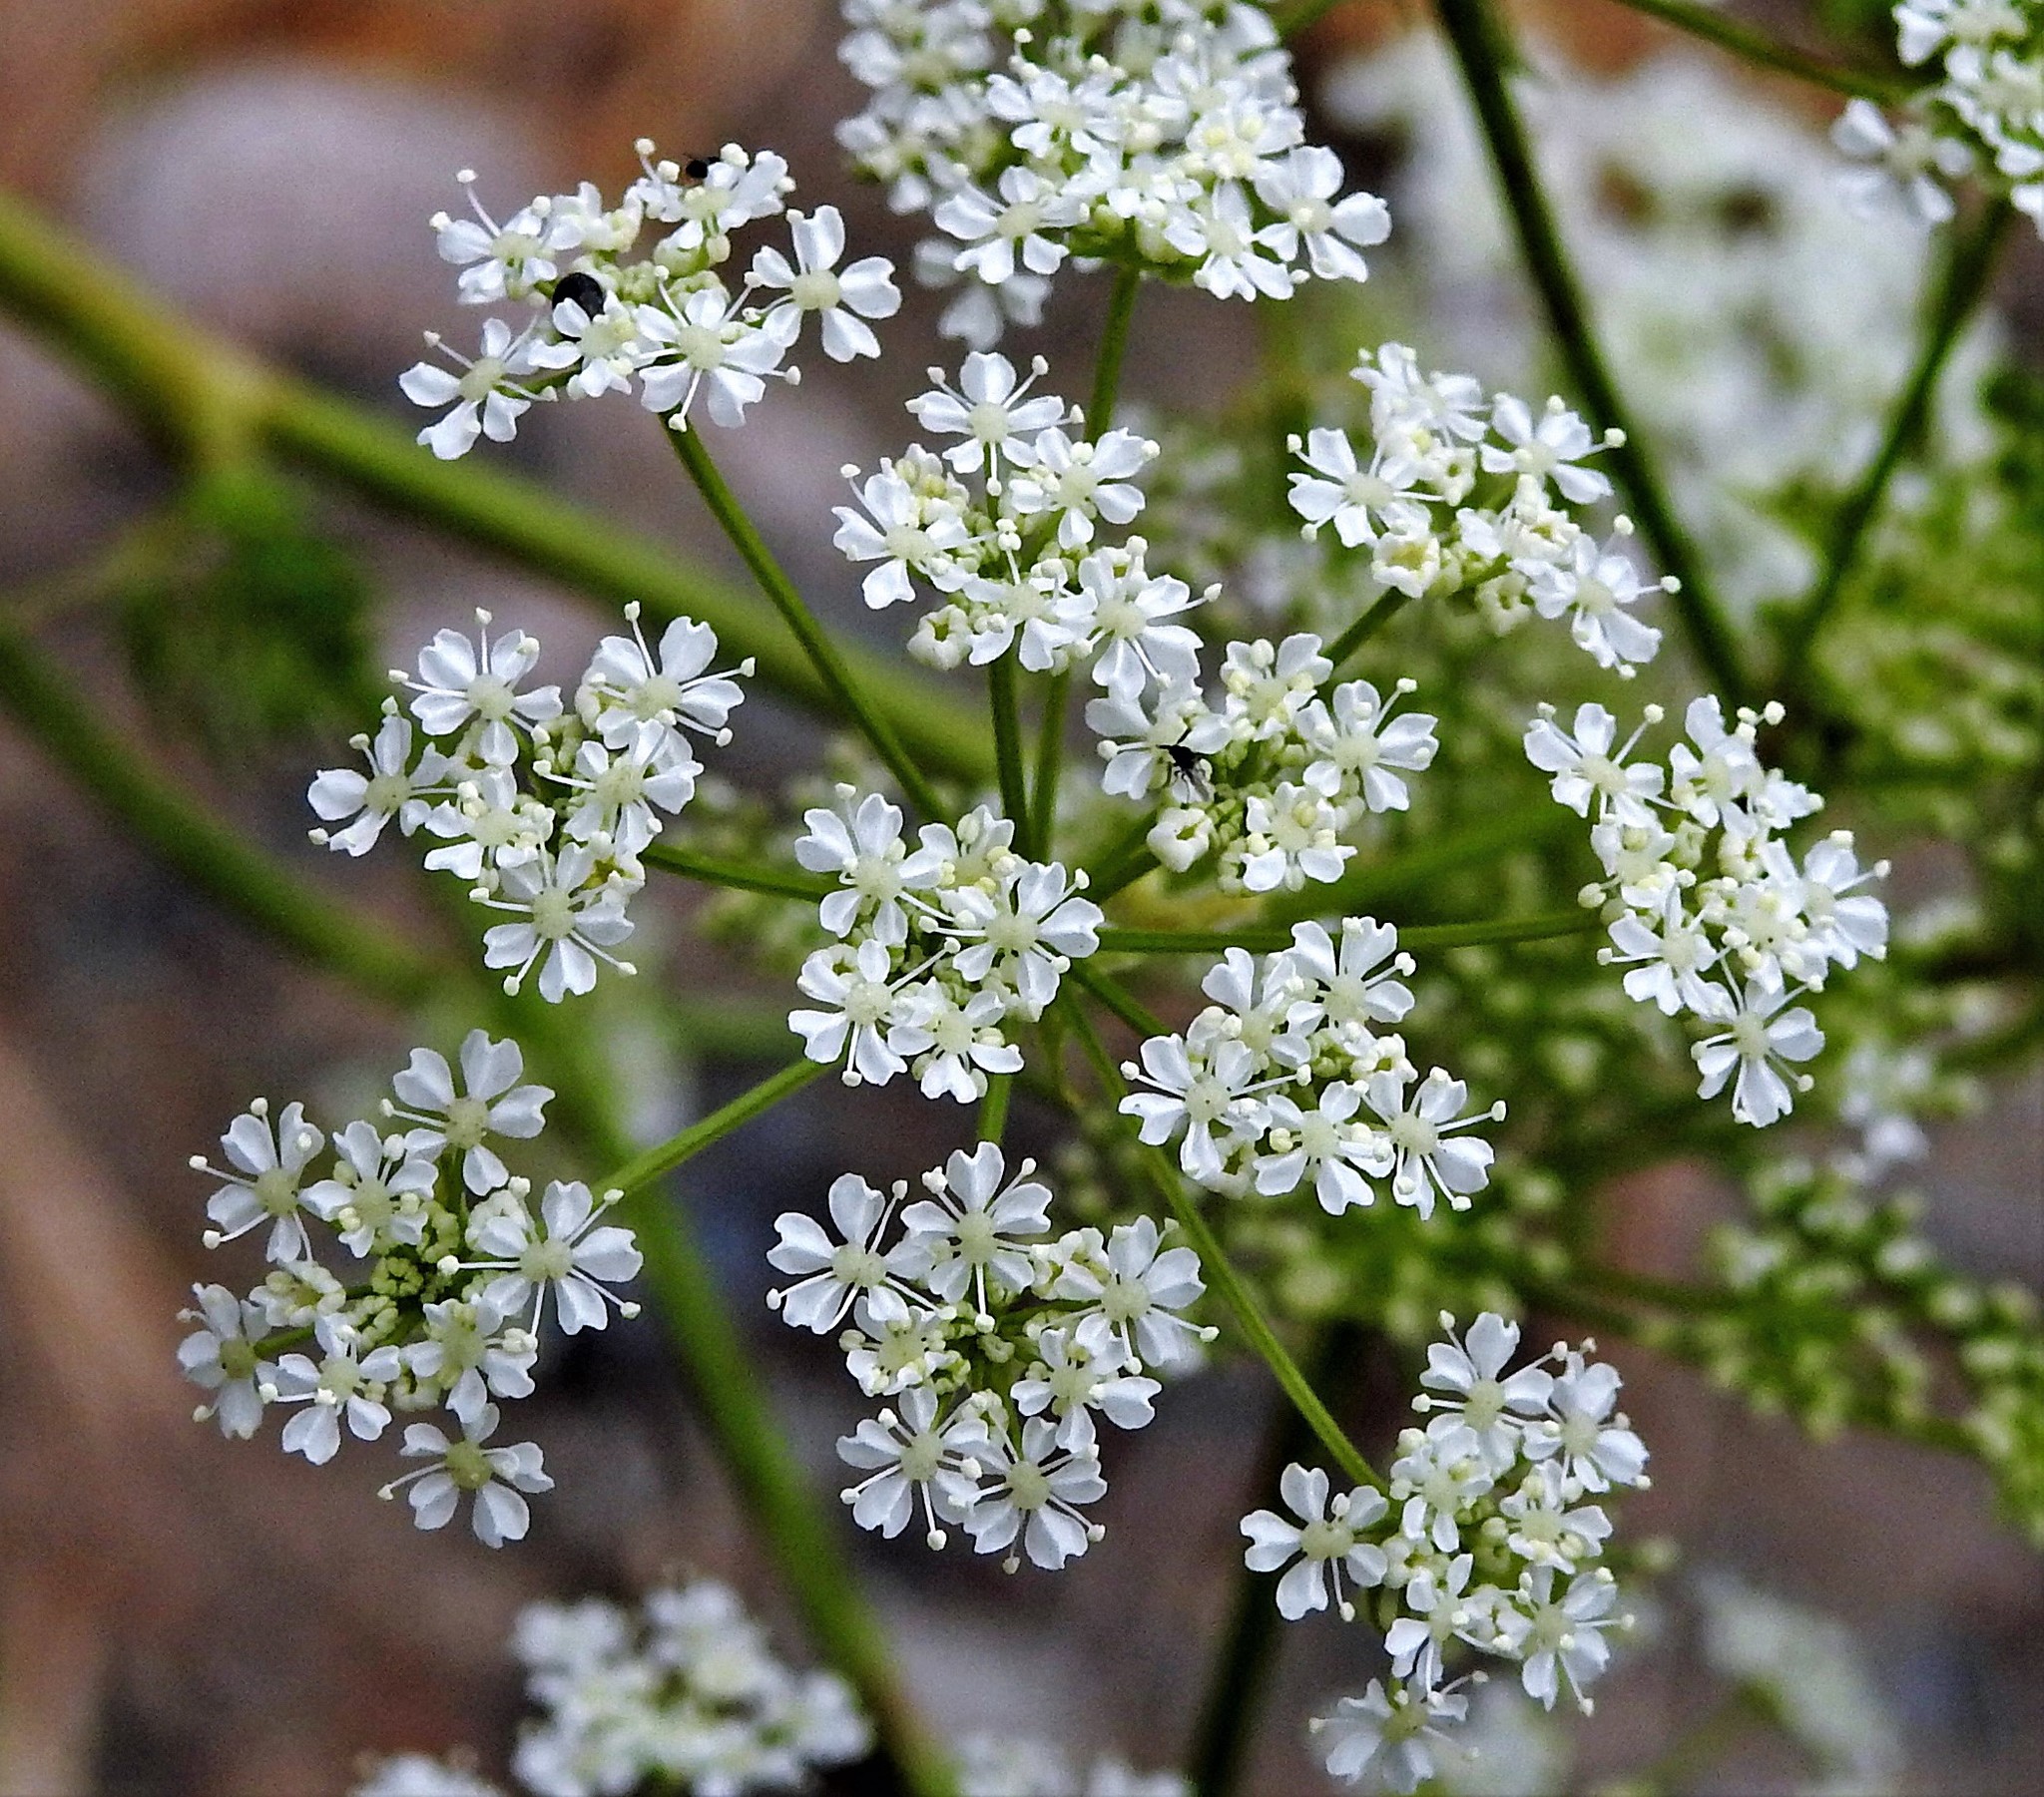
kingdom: Plantae
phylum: Tracheophyta
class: Magnoliopsida
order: Apiales
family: Apiaceae
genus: Conium
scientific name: Conium maculatum
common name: Hemlock
